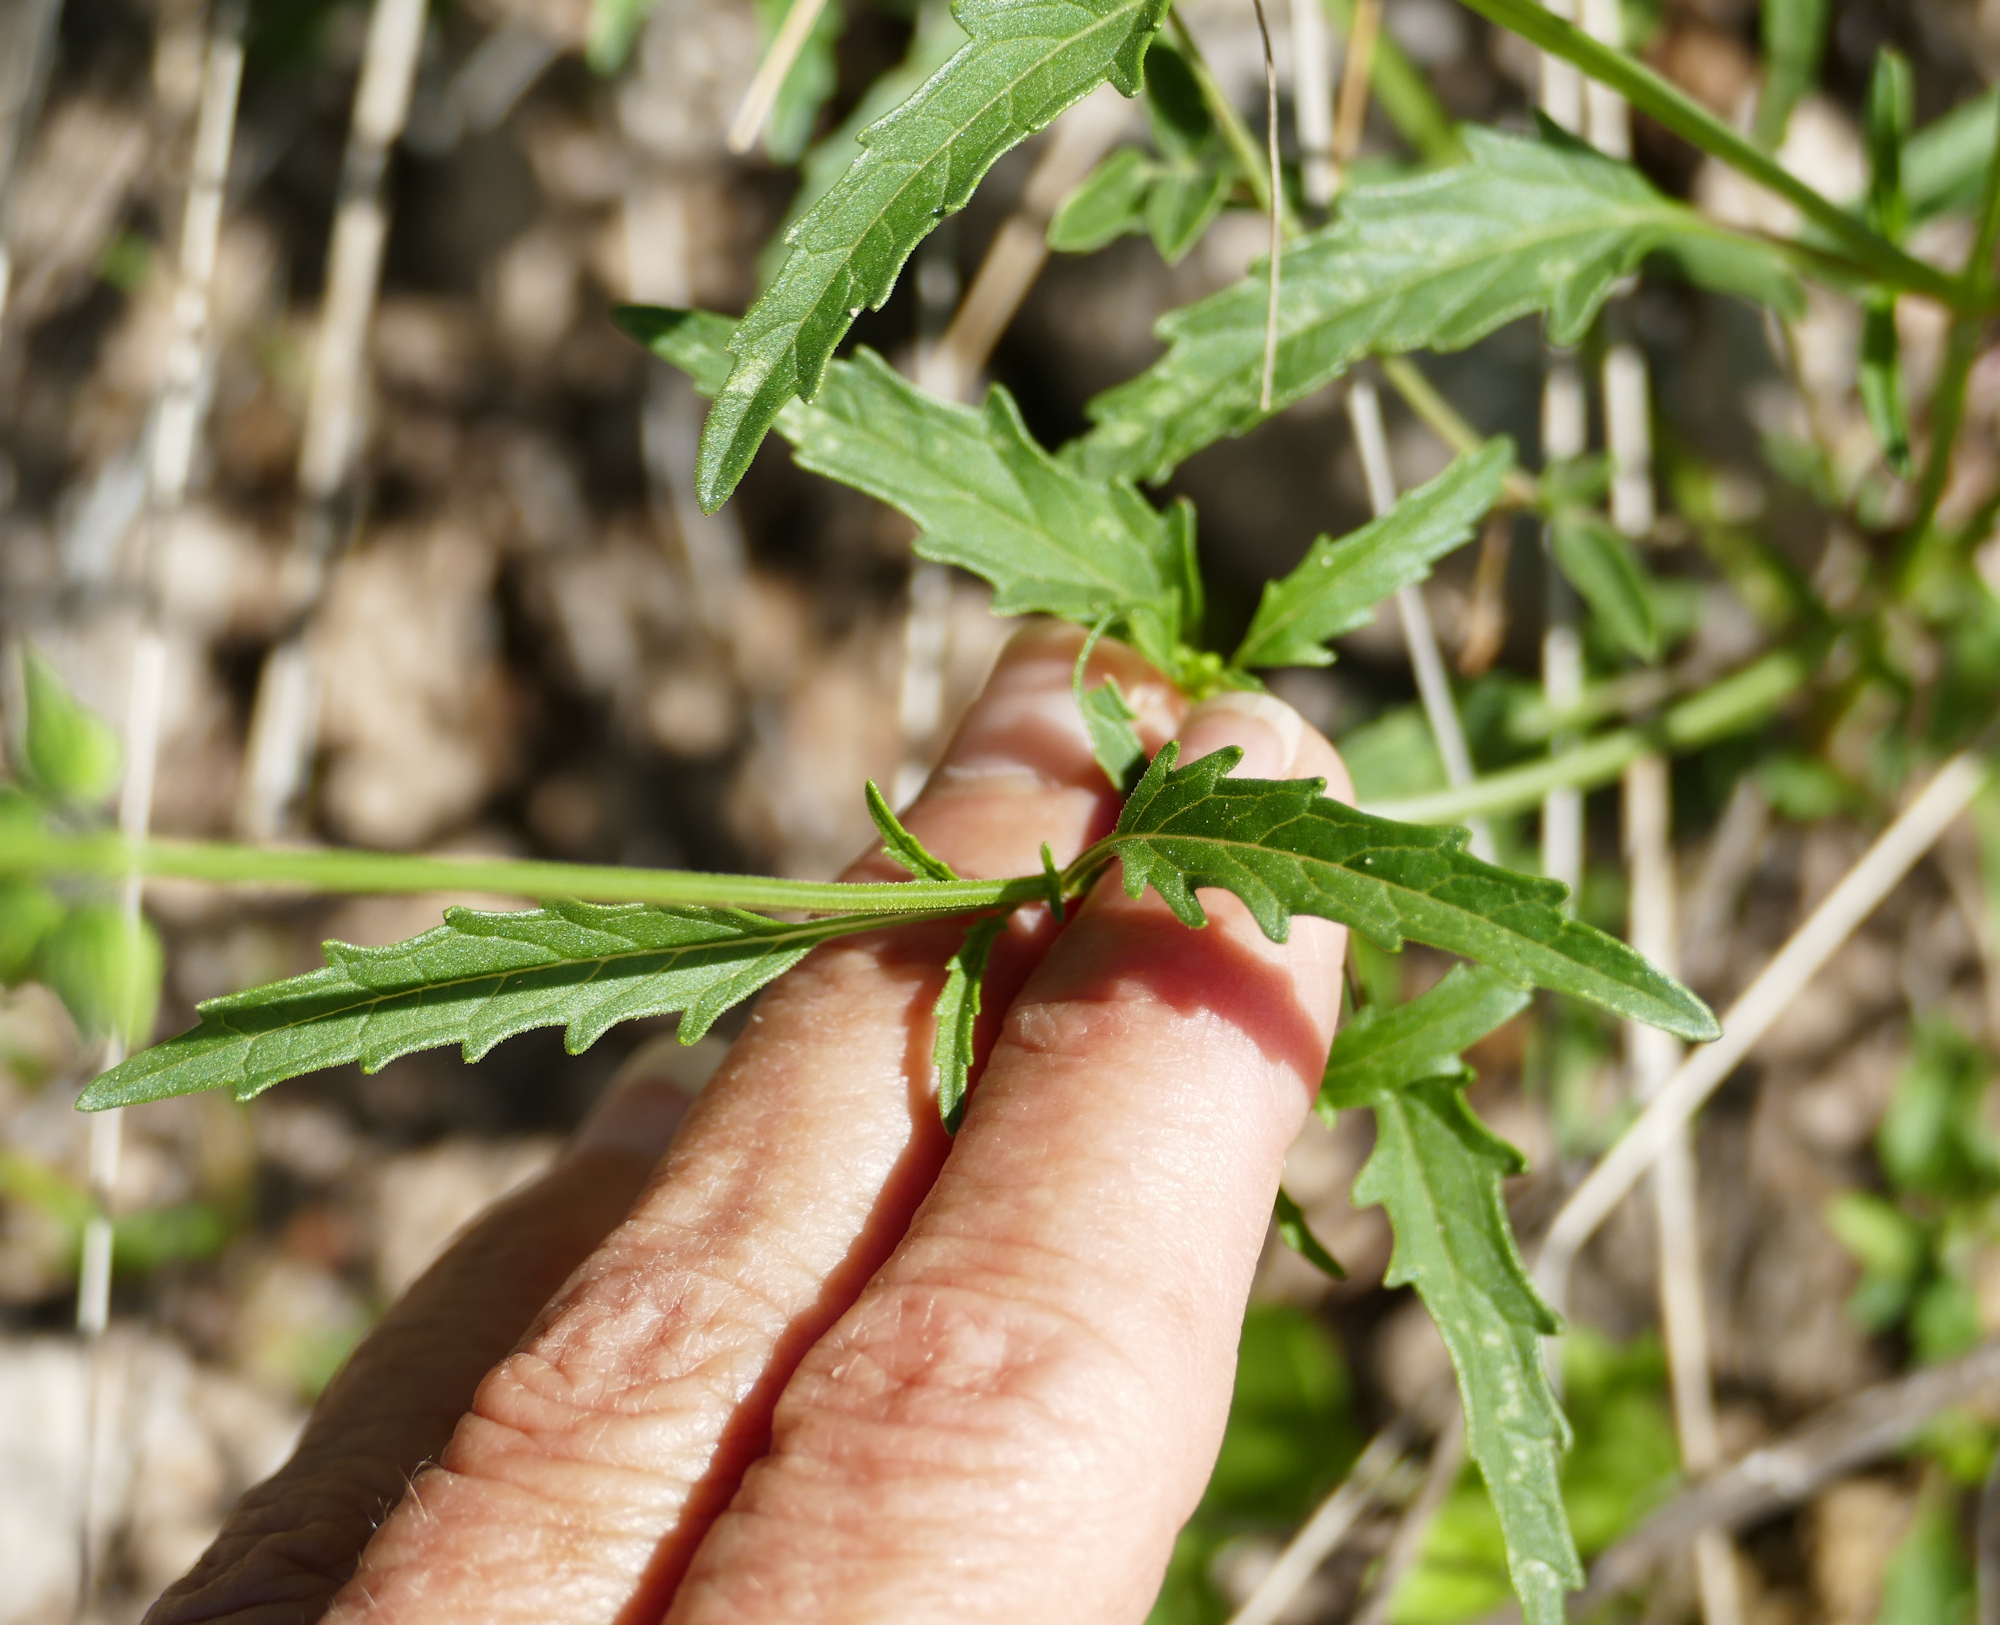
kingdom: Plantae
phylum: Tracheophyta
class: Magnoliopsida
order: Lamiales
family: Lamiaceae
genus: Salvia
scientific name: Salvia subincisa
